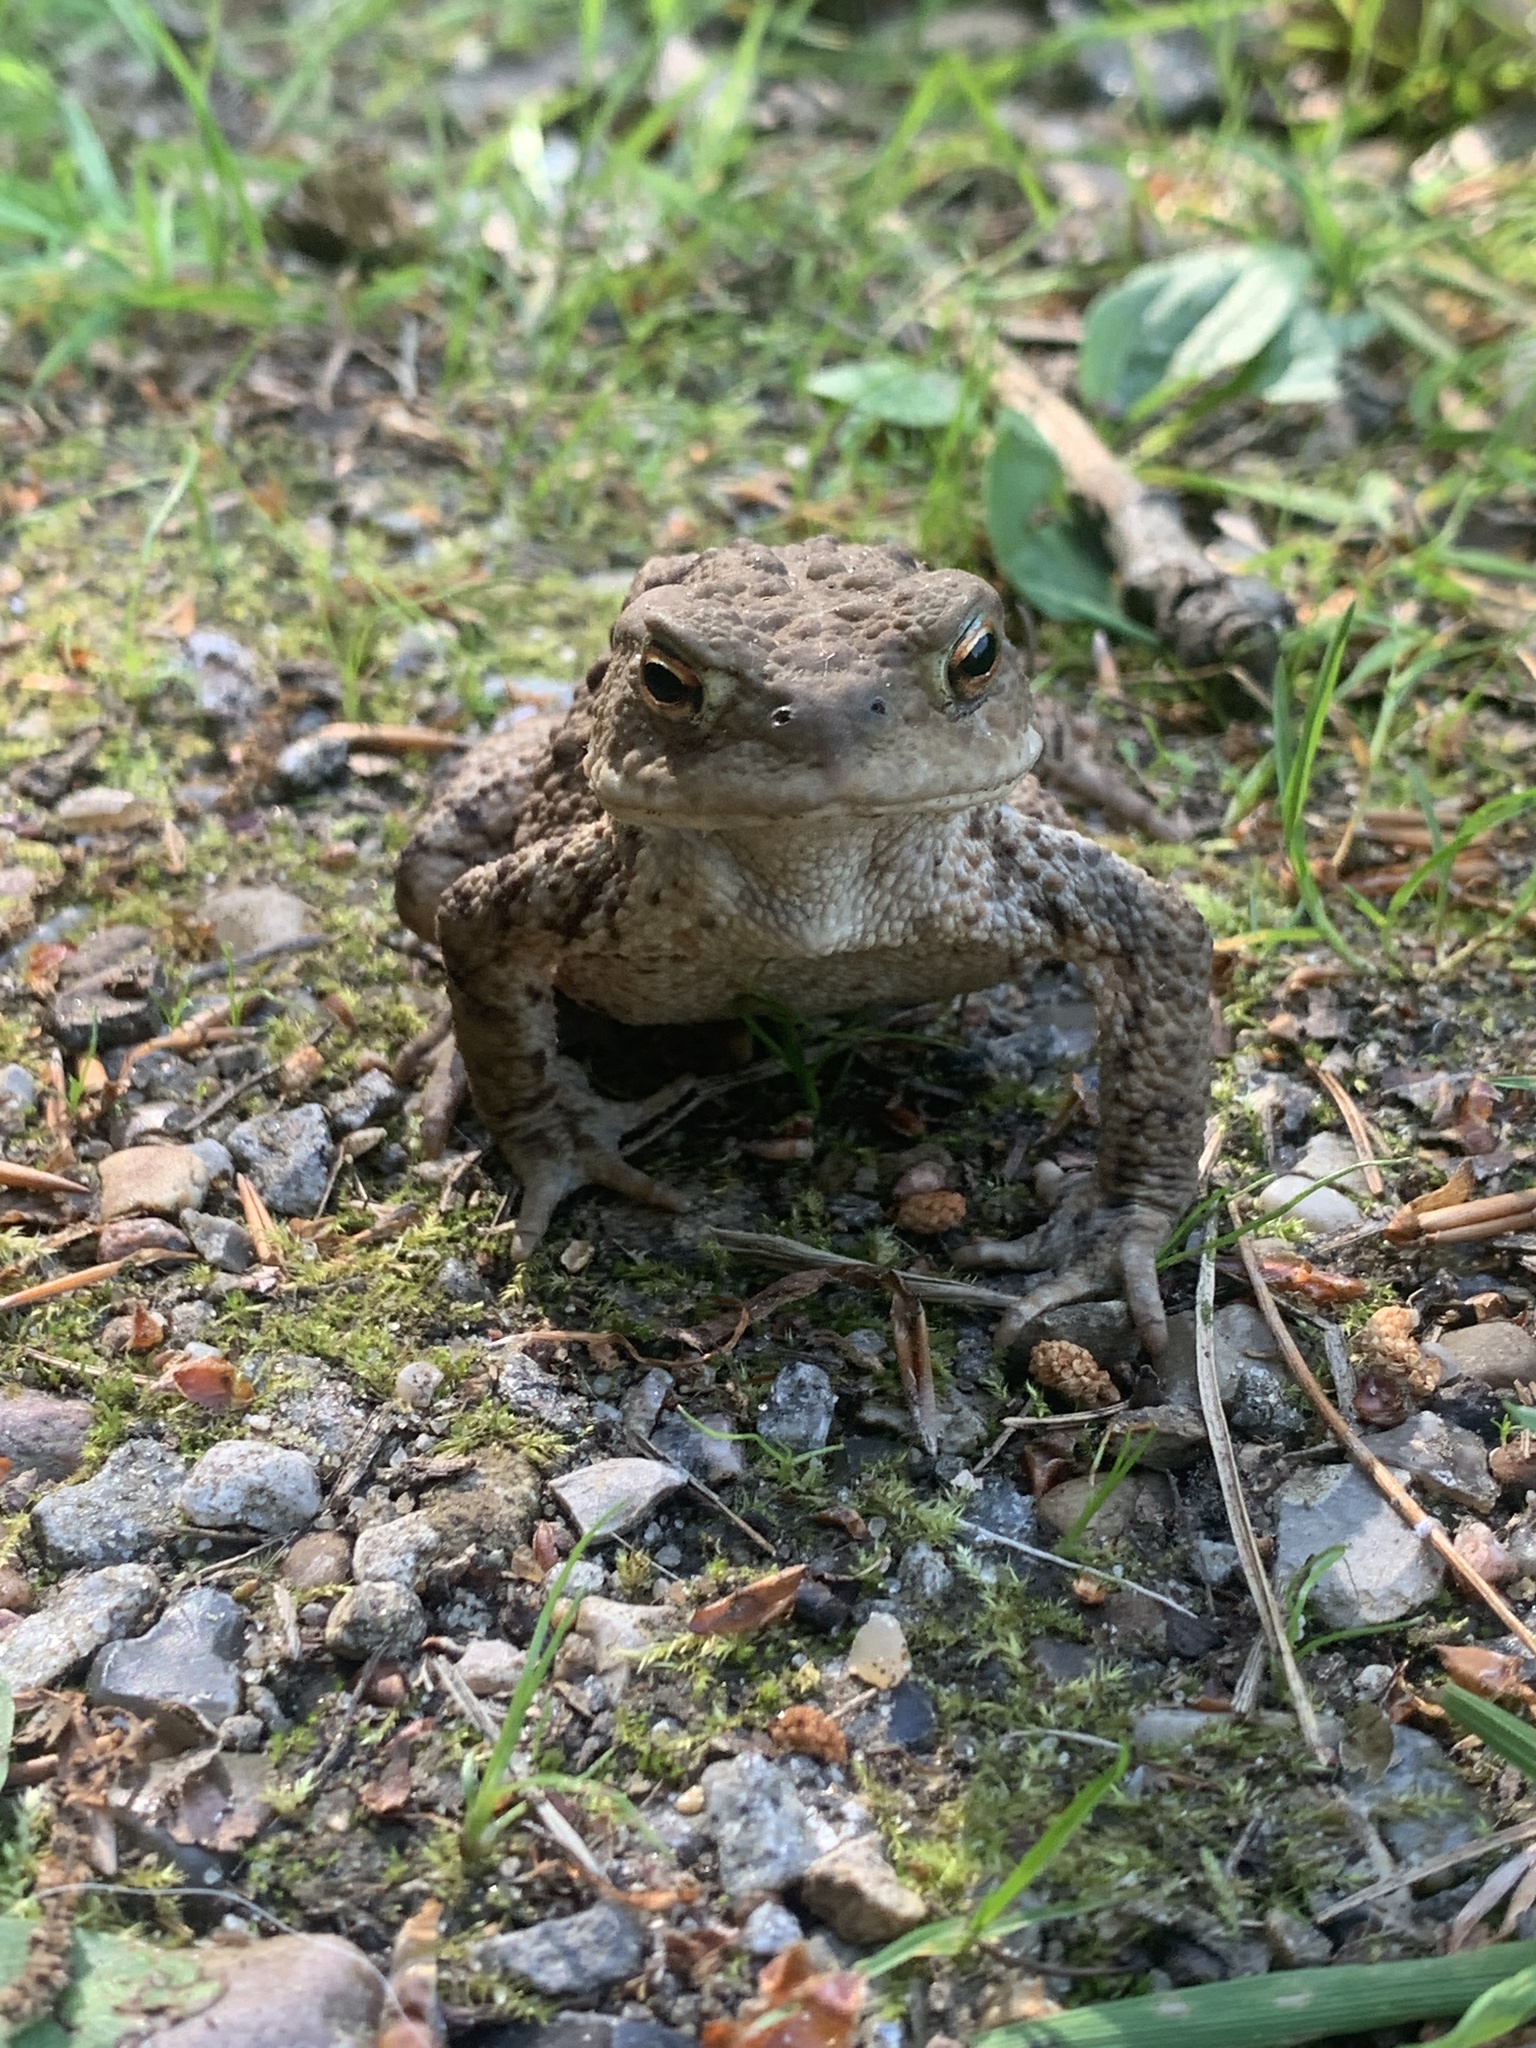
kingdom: Animalia
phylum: Chordata
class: Amphibia
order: Anura
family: Bufonidae
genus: Bufo
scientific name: Bufo bufo
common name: Common toad
